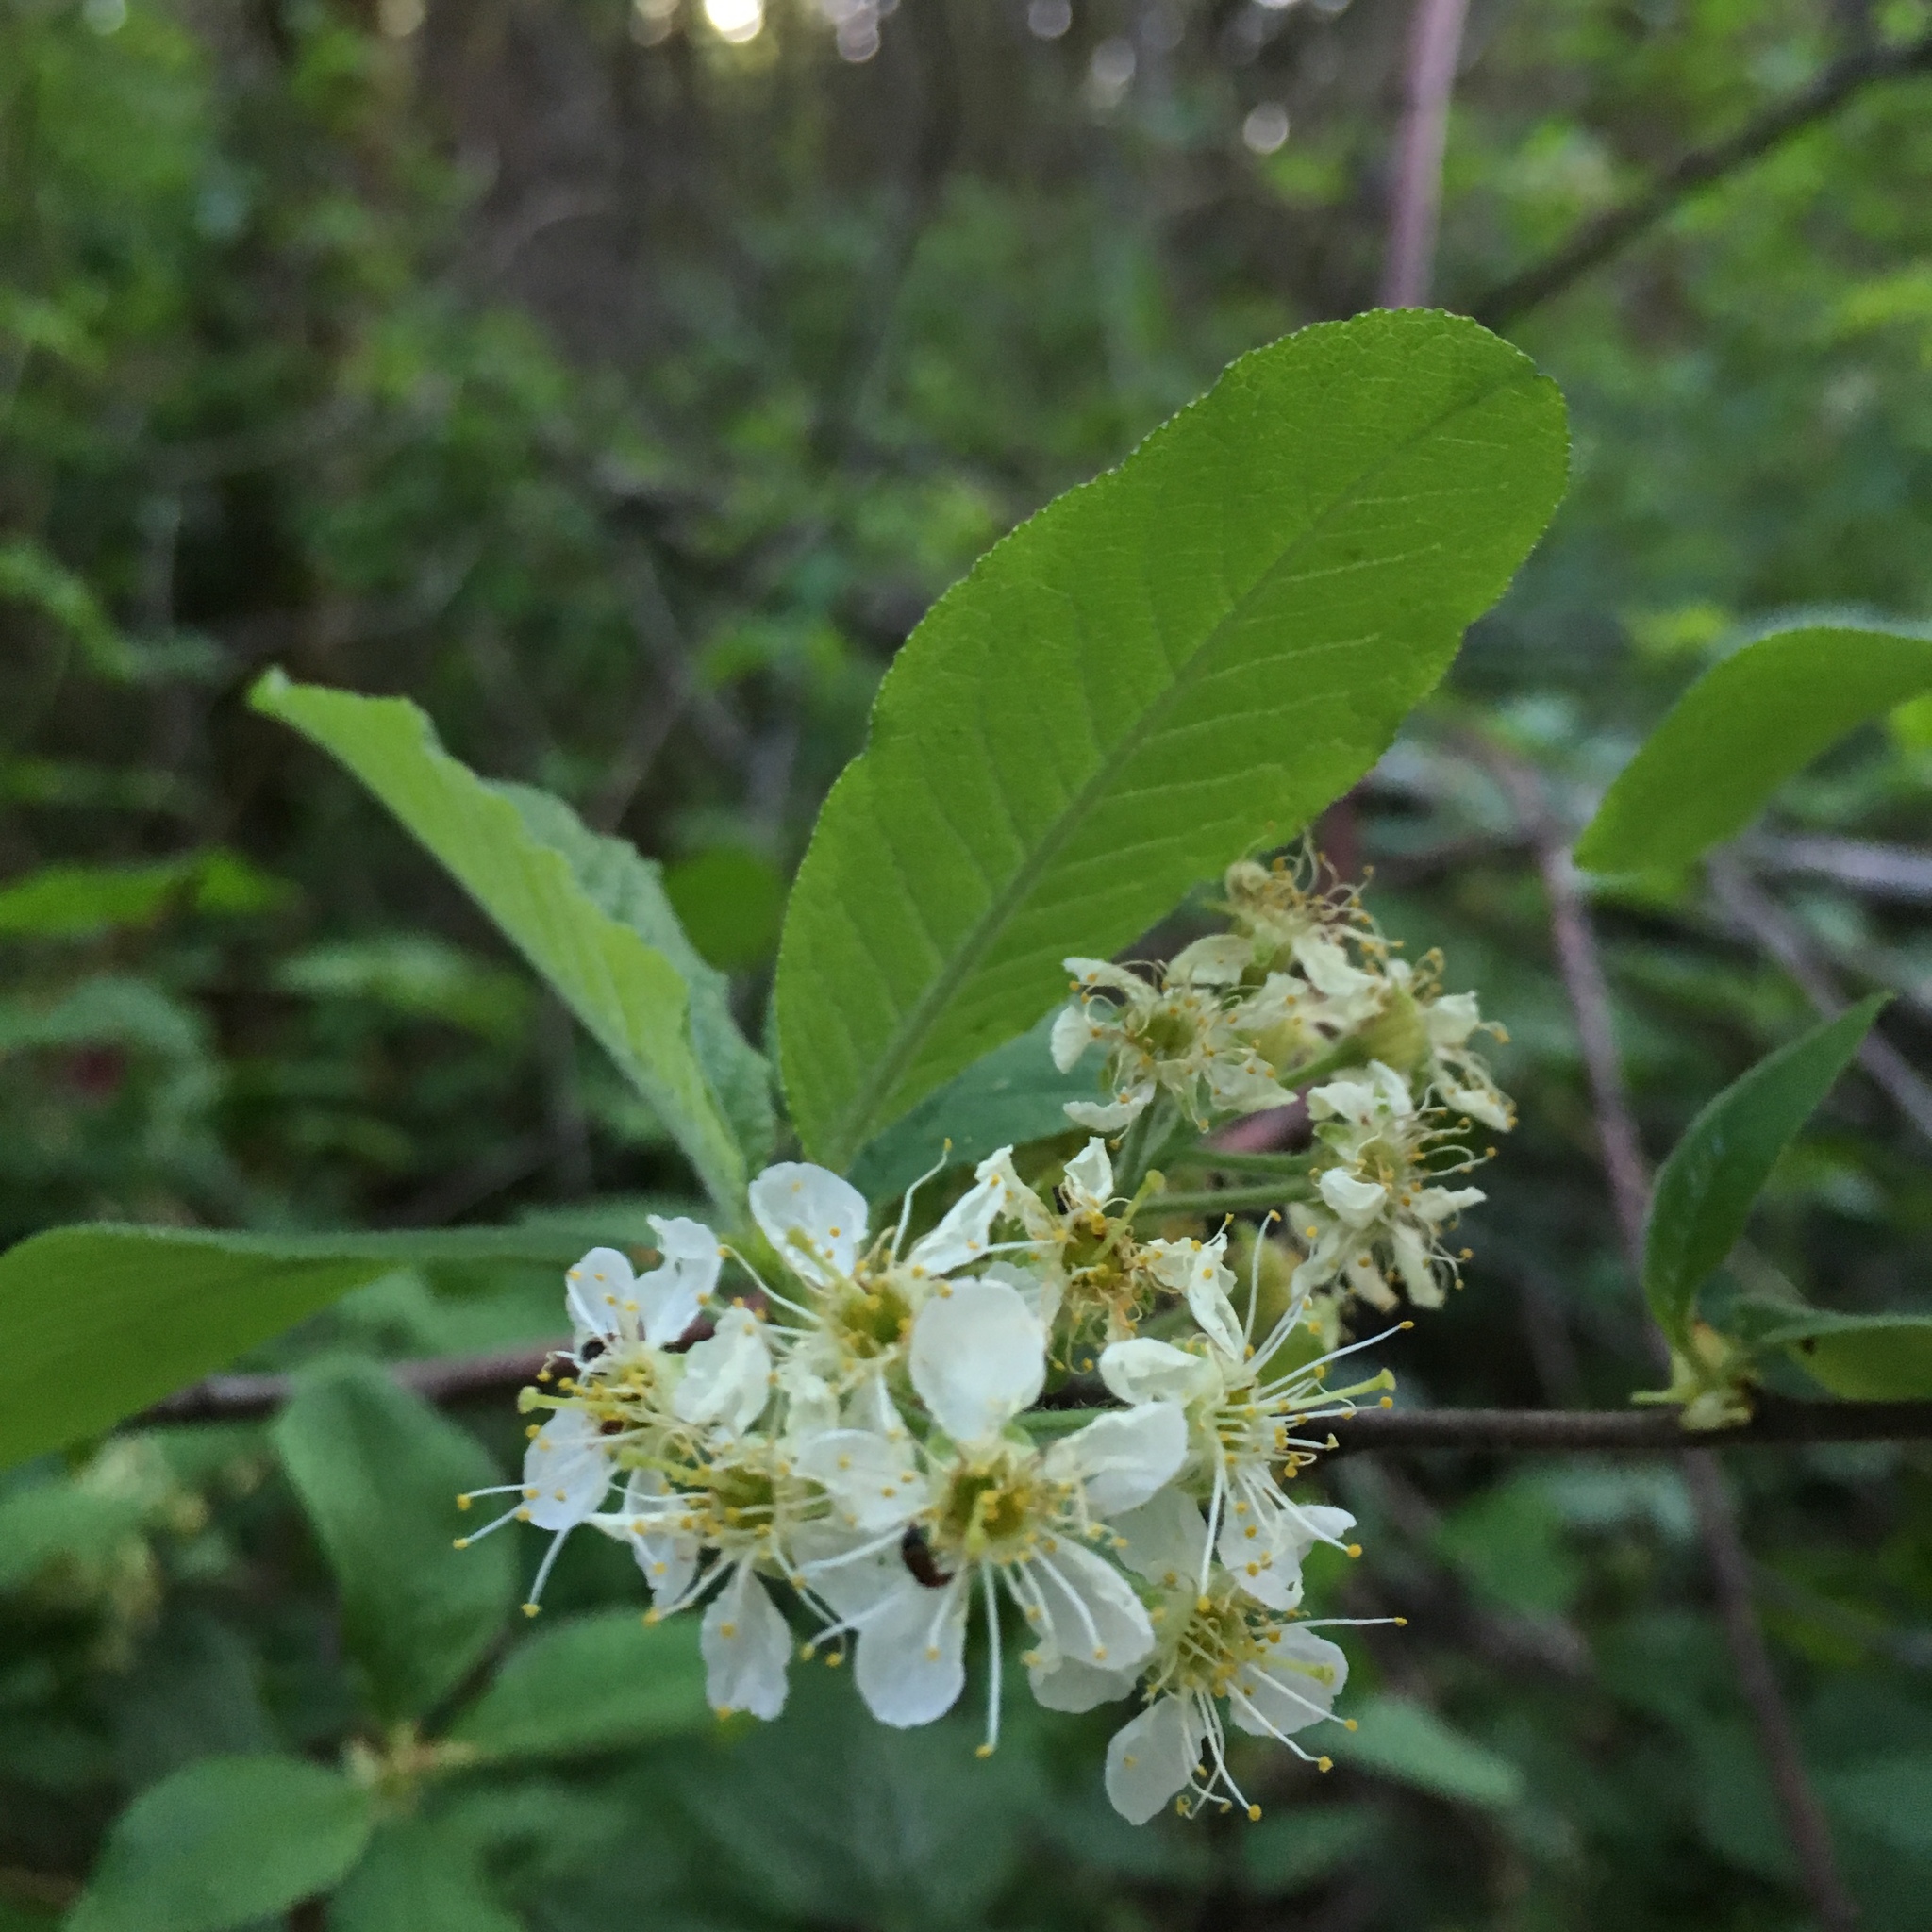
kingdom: Plantae
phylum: Tracheophyta
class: Magnoliopsida
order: Rosales
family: Rosaceae
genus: Prunus
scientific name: Prunus emarginata
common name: Bitter cherry
